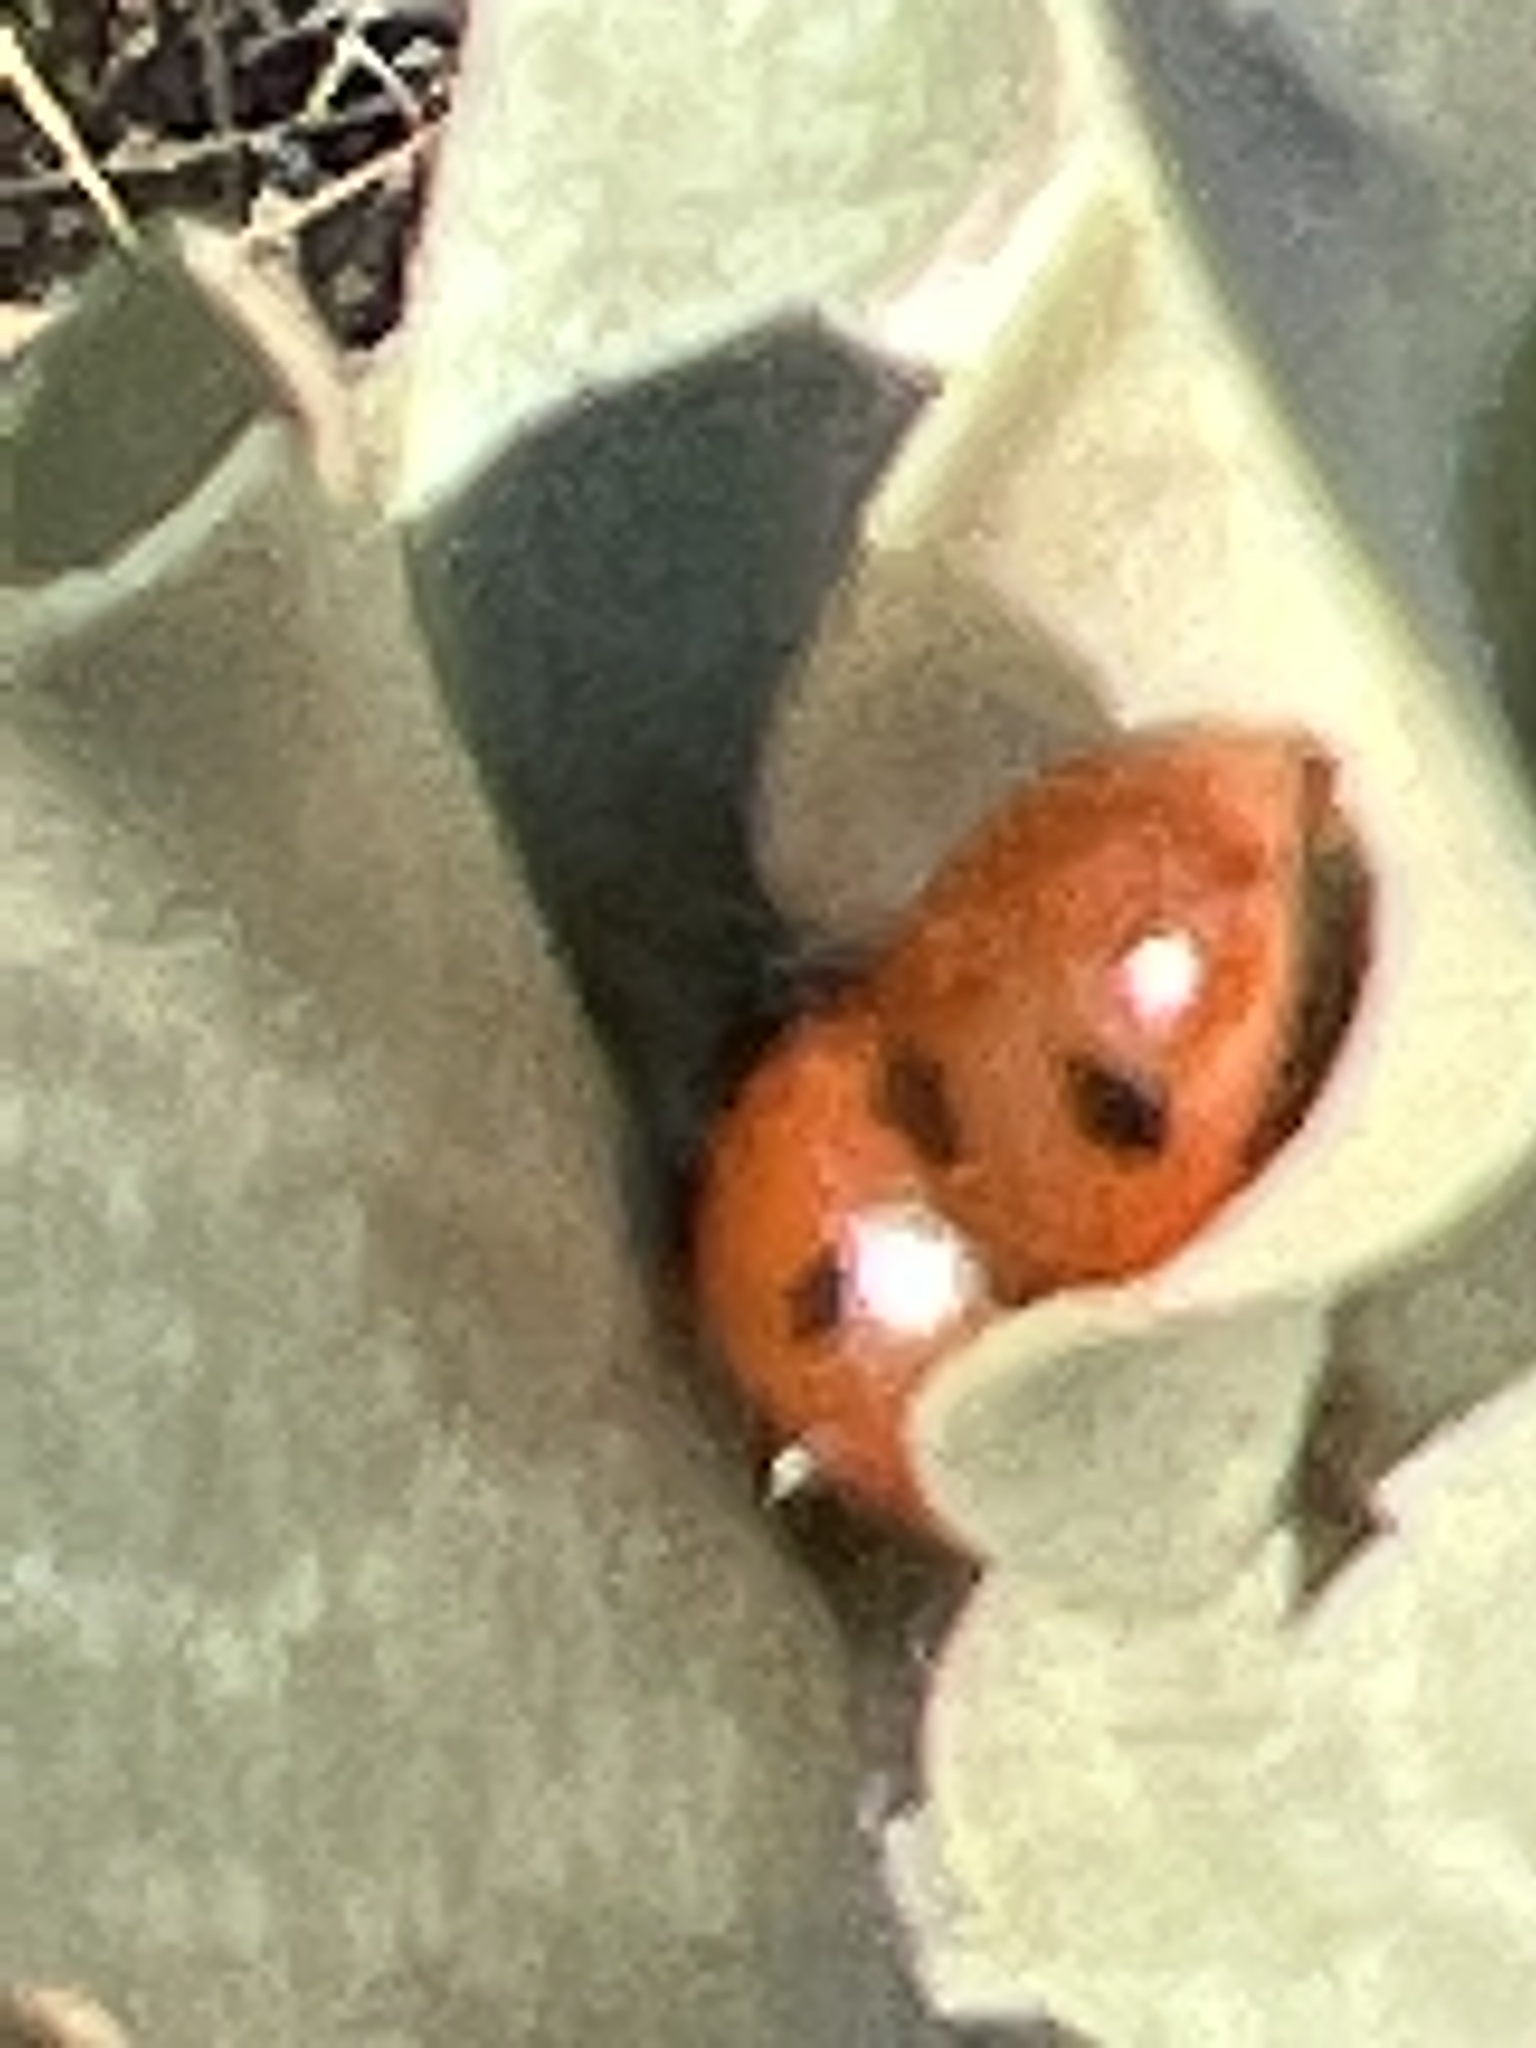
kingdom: Animalia
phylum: Arthropoda
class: Insecta
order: Coleoptera
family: Coccinellidae
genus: Coccinella
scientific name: Coccinella septempunctata
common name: Sevenspotted lady beetle
